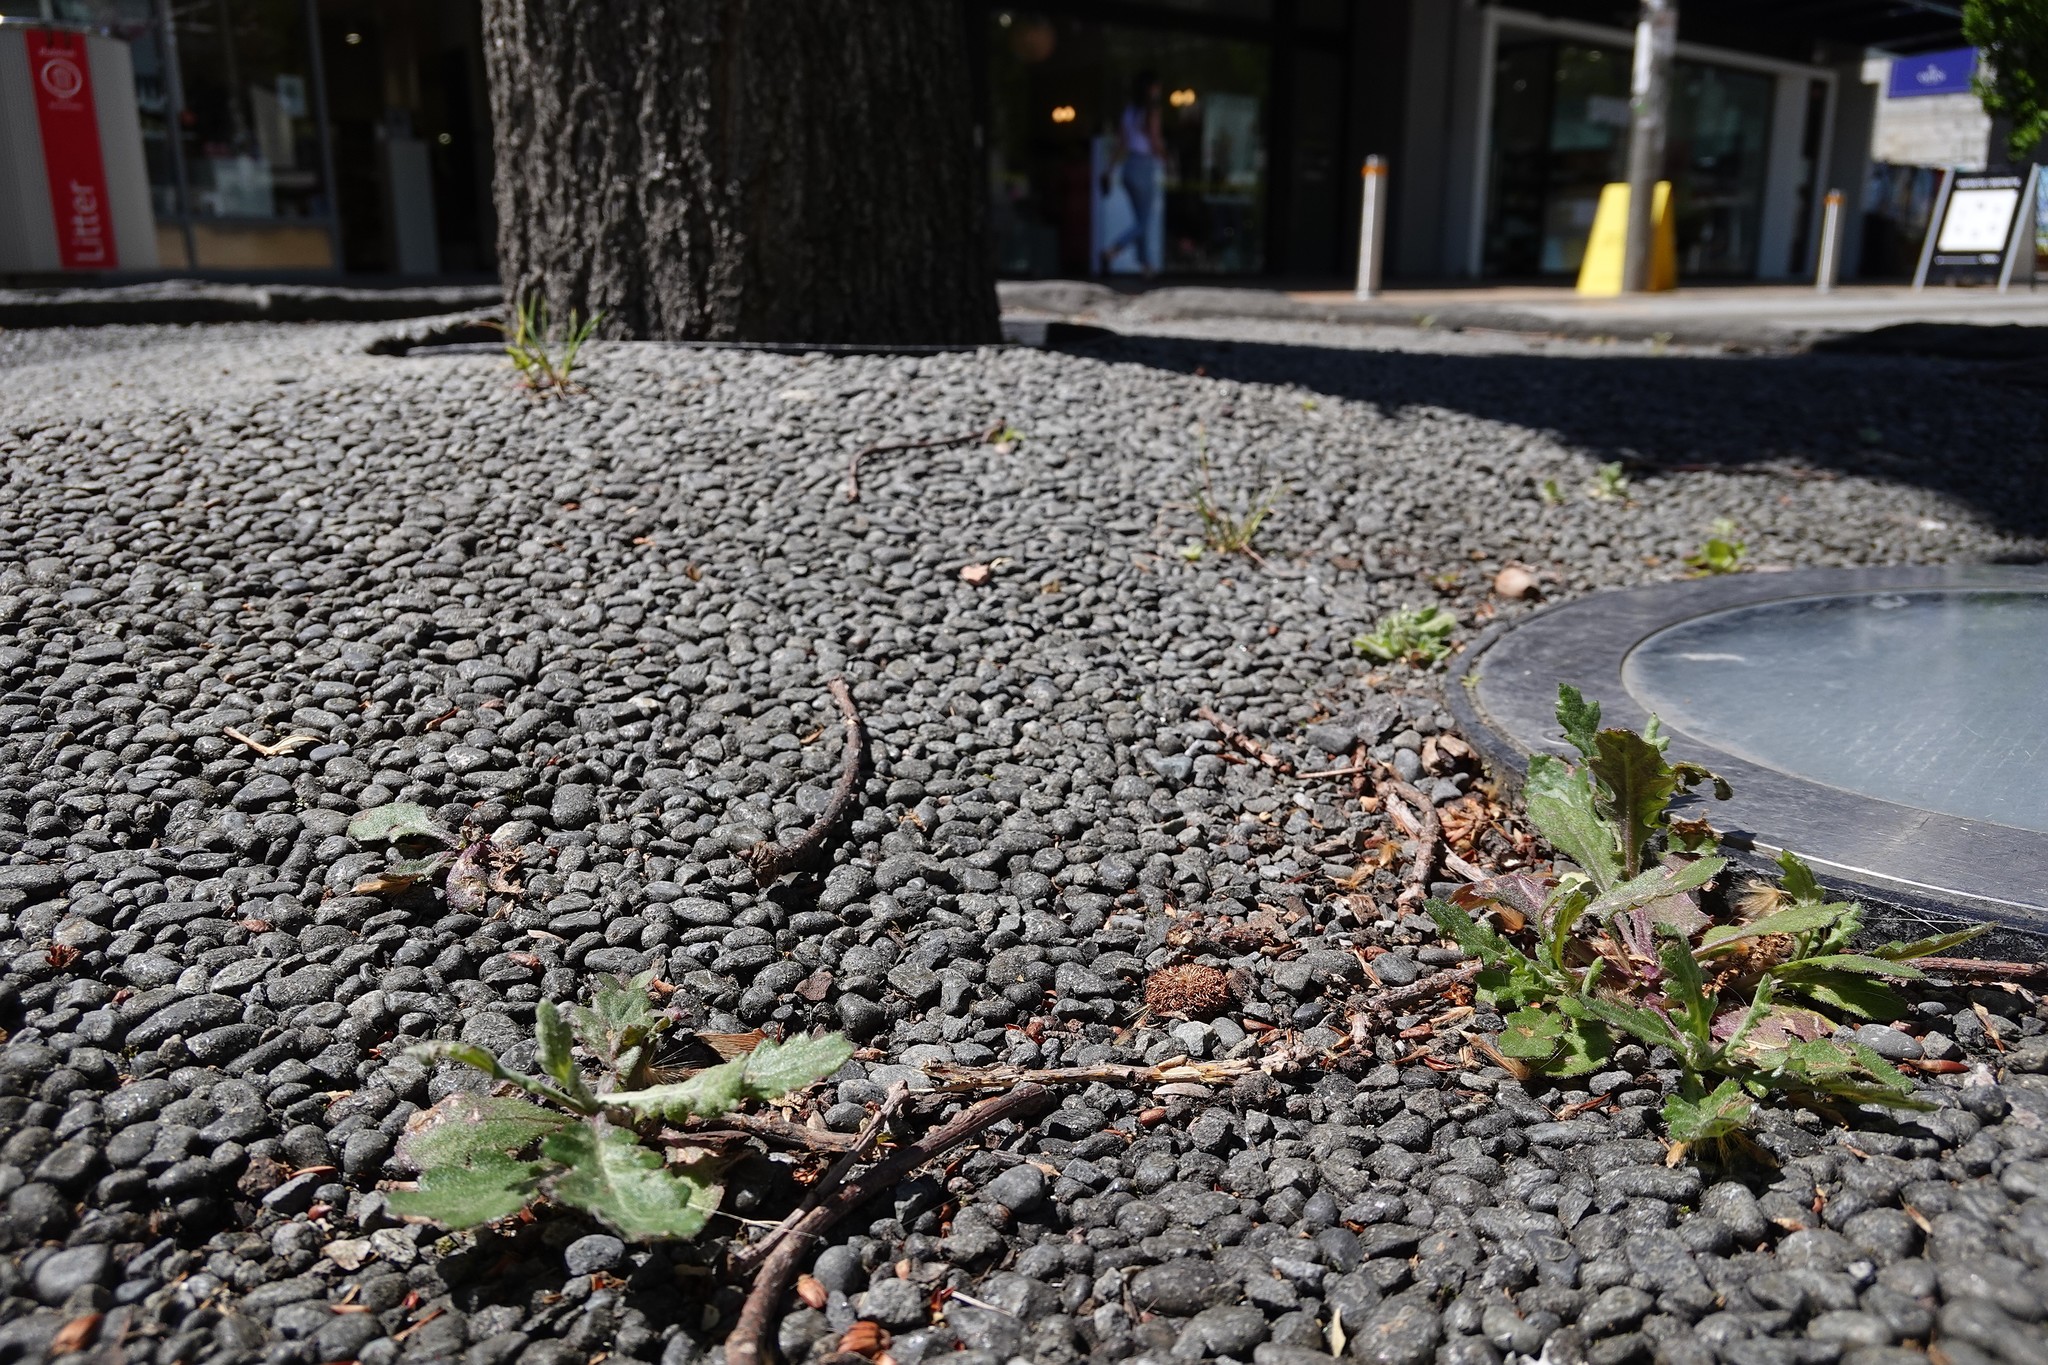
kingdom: Plantae
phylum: Tracheophyta
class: Magnoliopsida
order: Asterales
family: Asteraceae
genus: Senecio
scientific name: Senecio glomeratus
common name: Cutleaf burnweed
